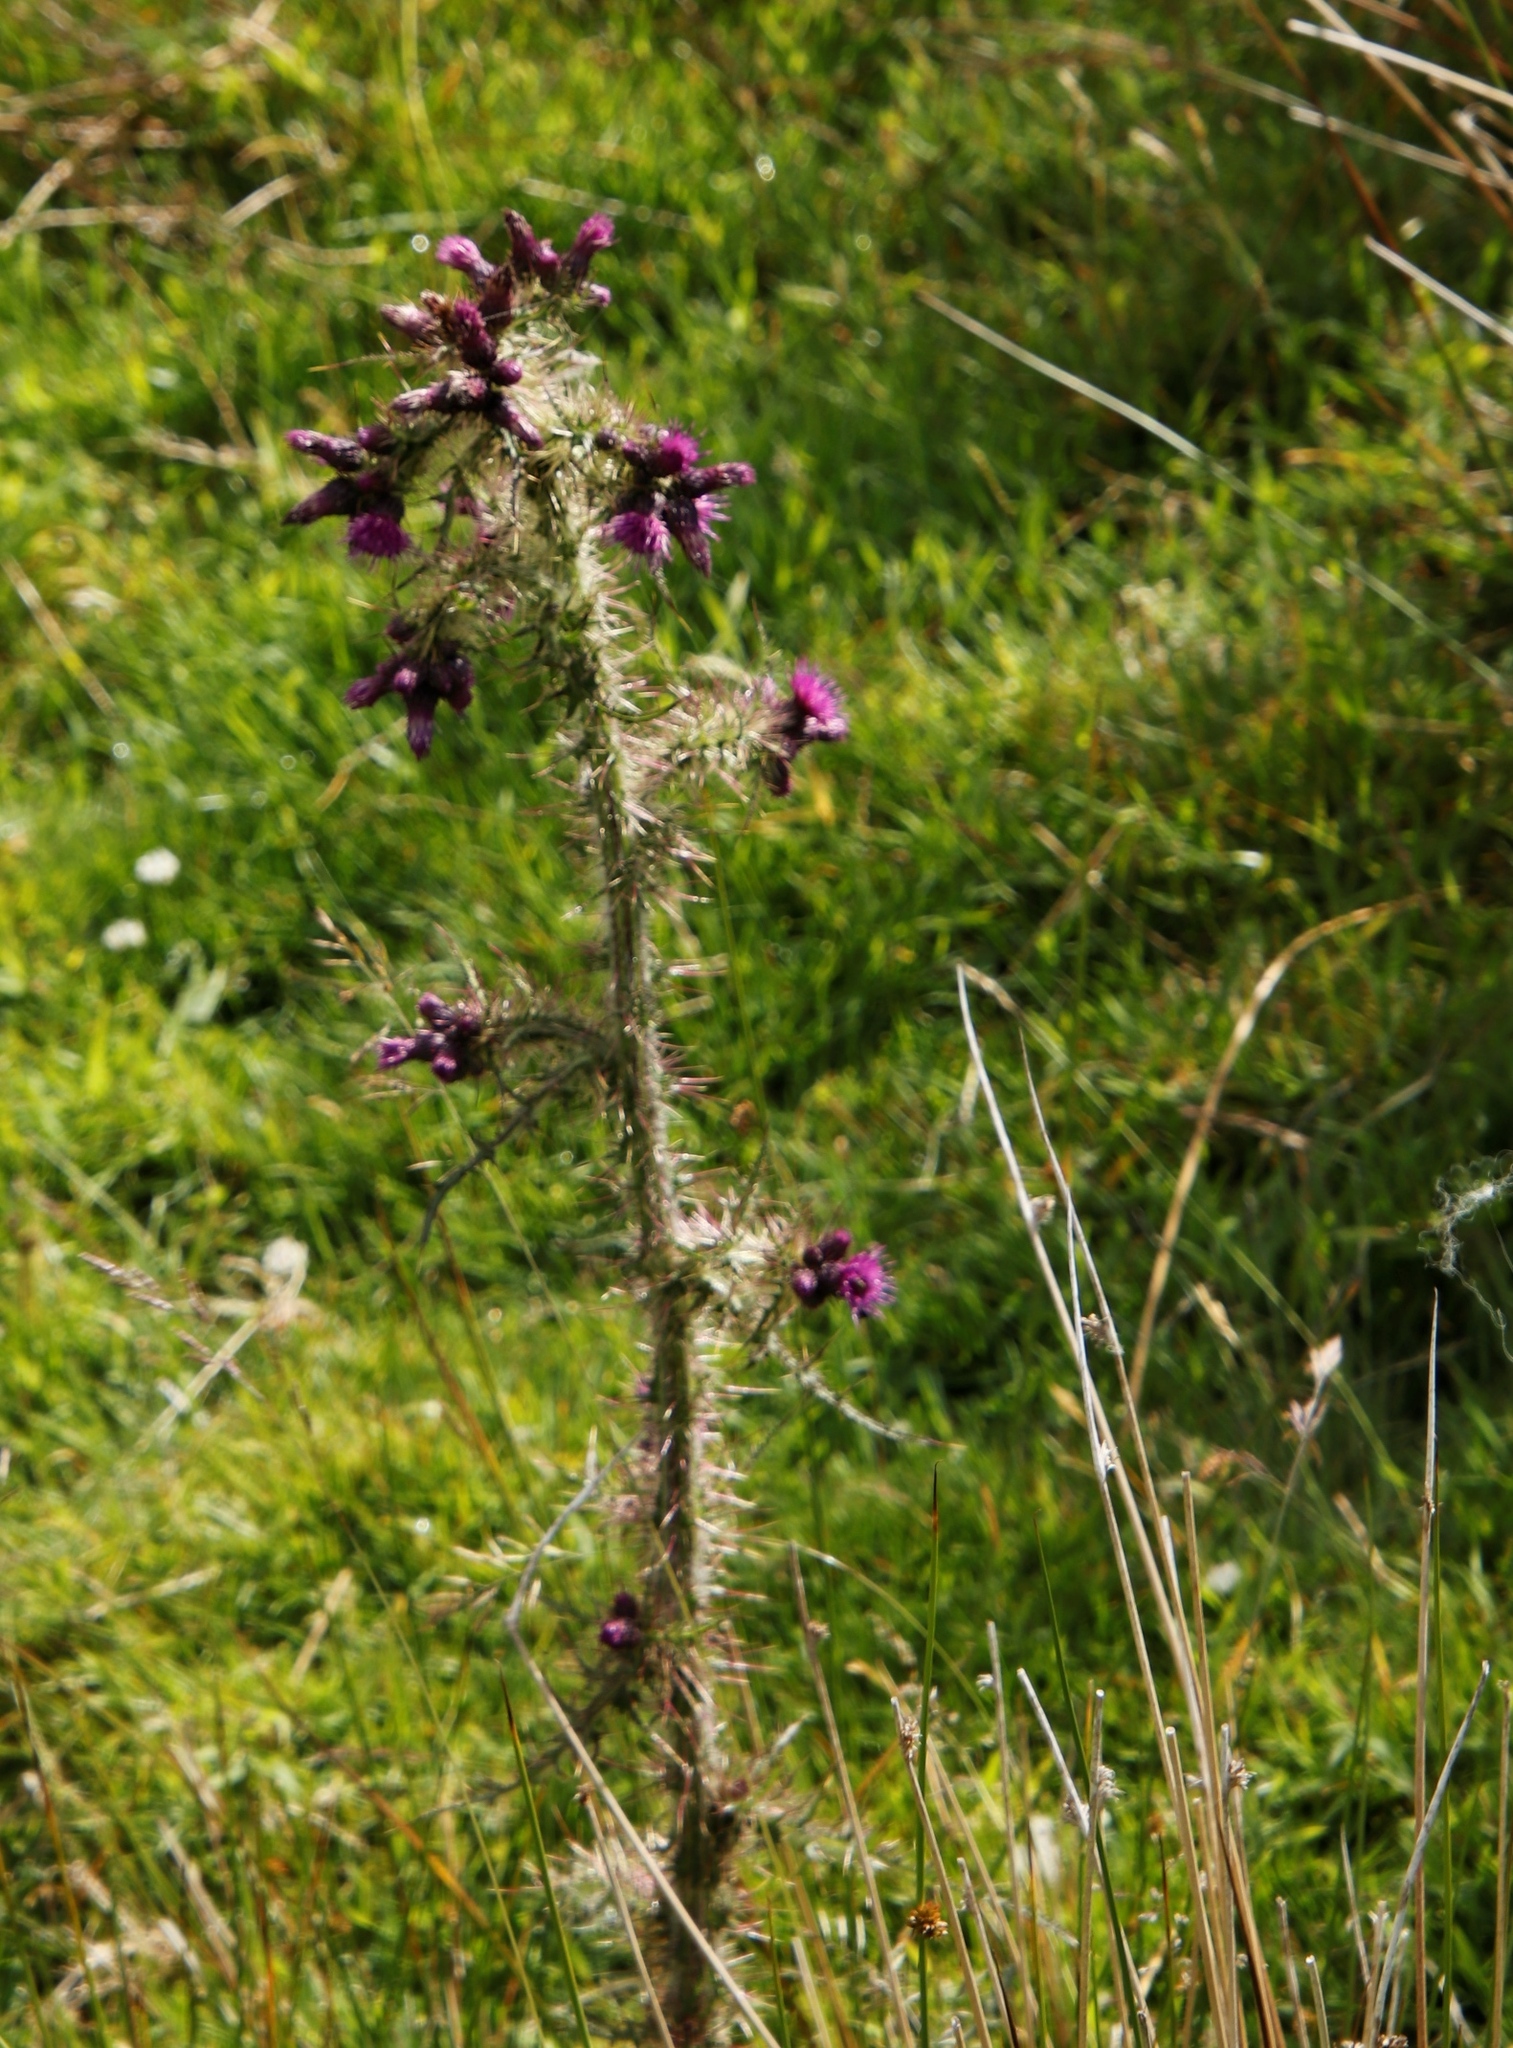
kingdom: Plantae
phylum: Tracheophyta
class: Magnoliopsida
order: Asterales
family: Asteraceae
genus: Cirsium
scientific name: Cirsium palustre
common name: Marsh thistle
